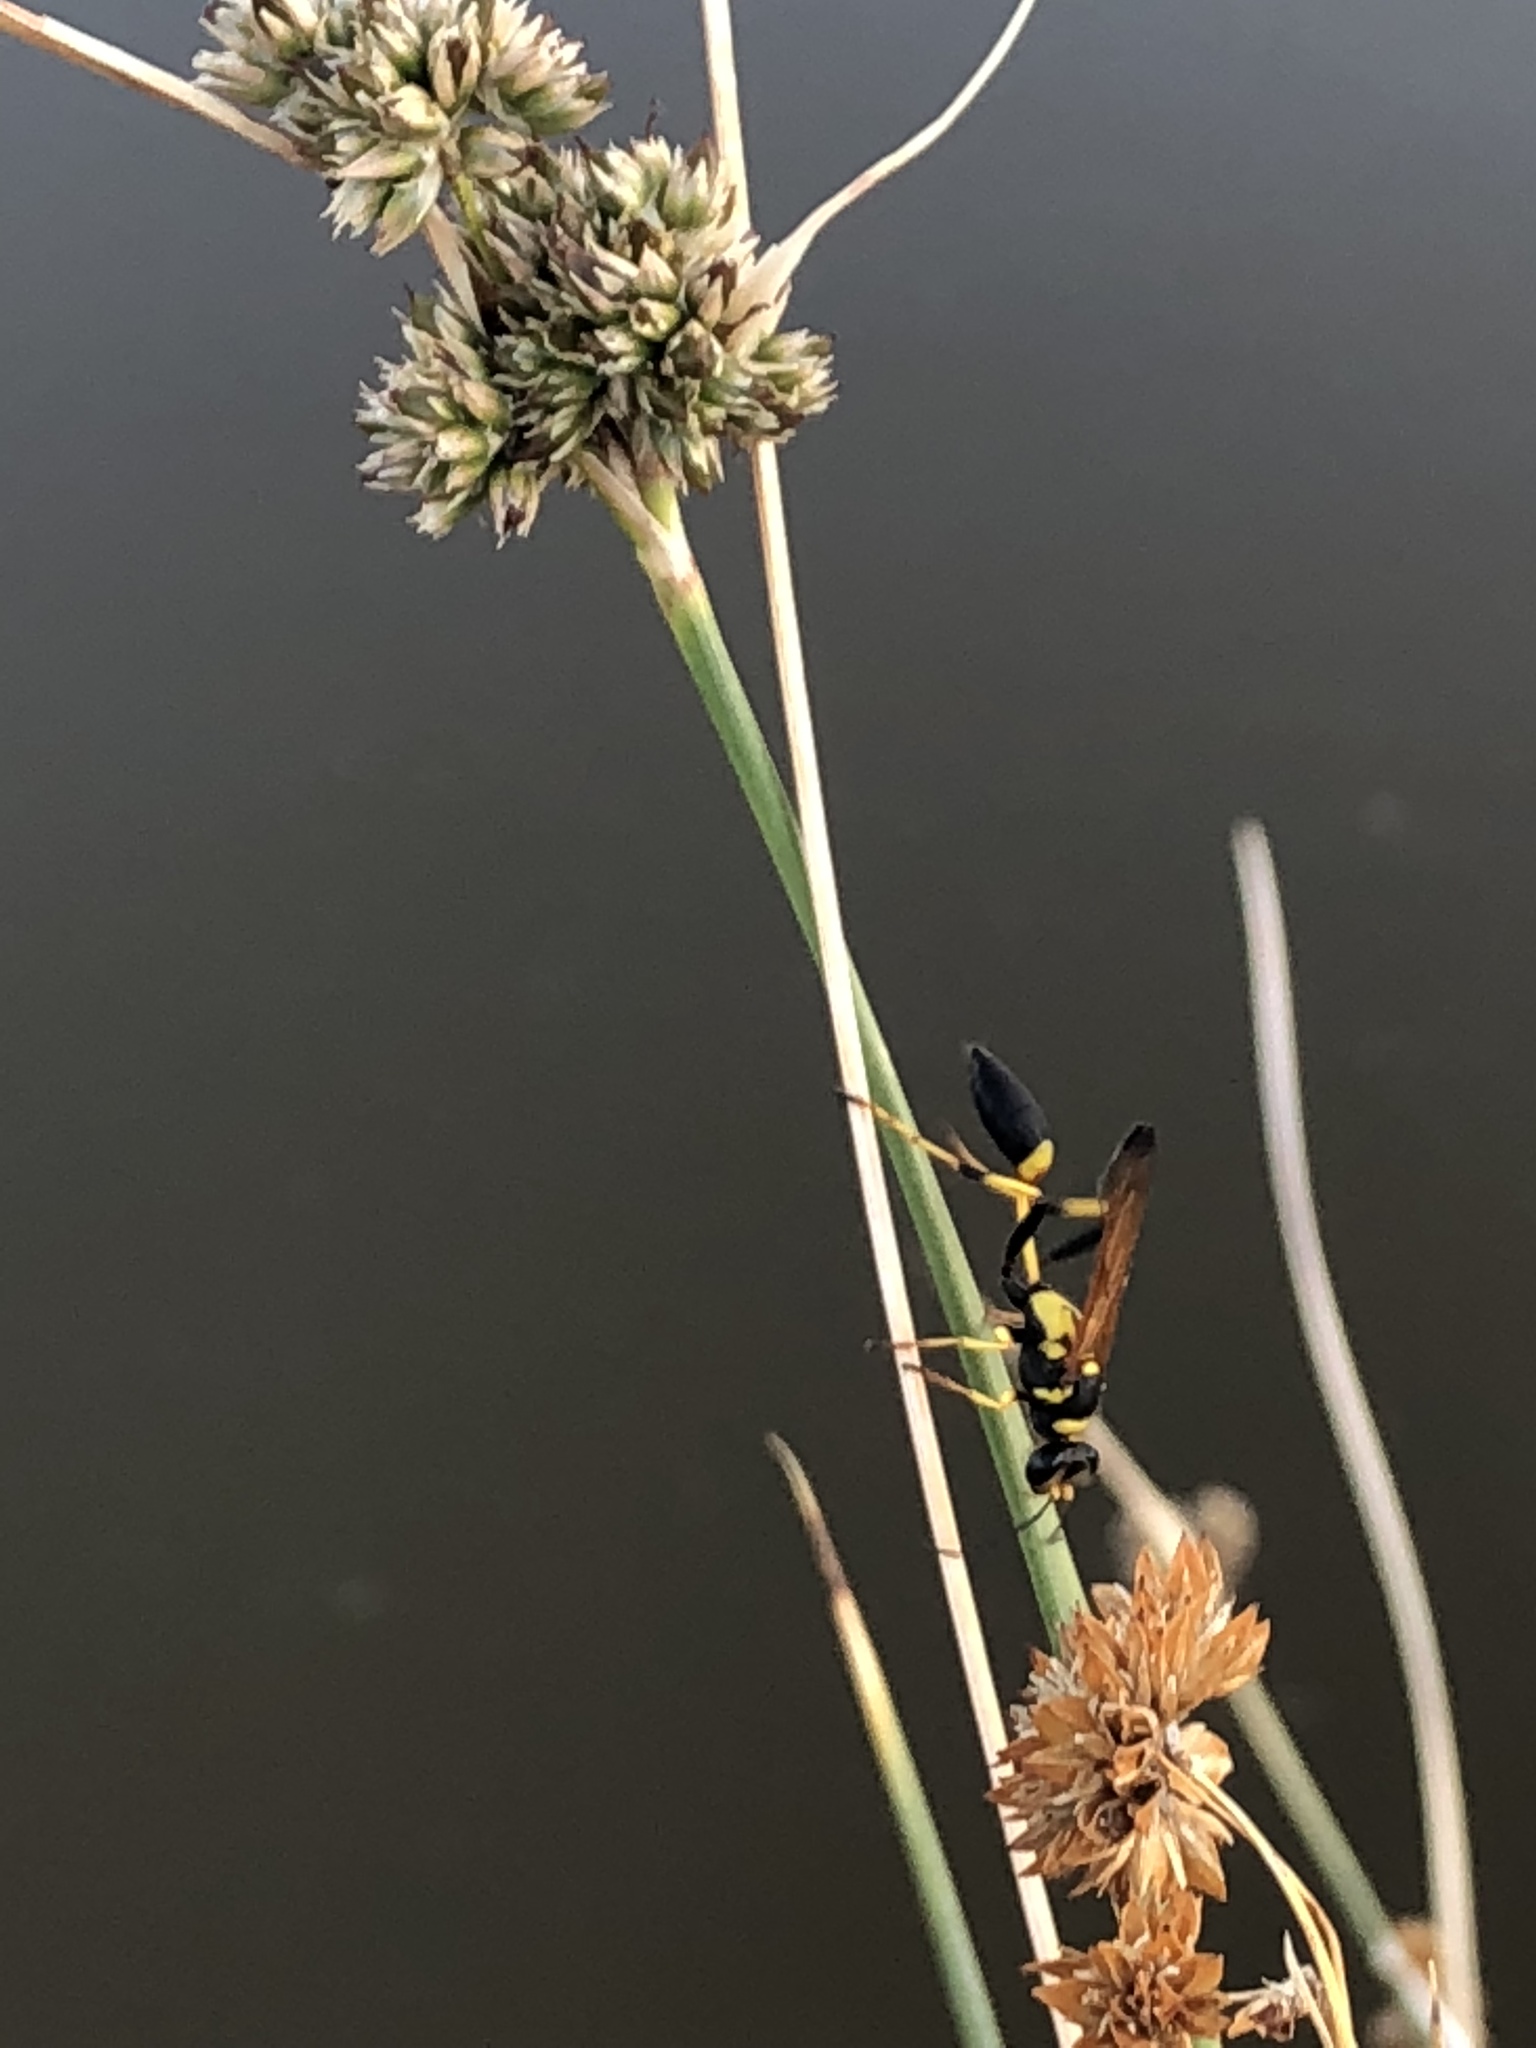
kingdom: Animalia
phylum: Arthropoda
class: Insecta
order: Hymenoptera
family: Sphecidae
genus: Sceliphron
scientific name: Sceliphron caementarium
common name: Mud dauber
